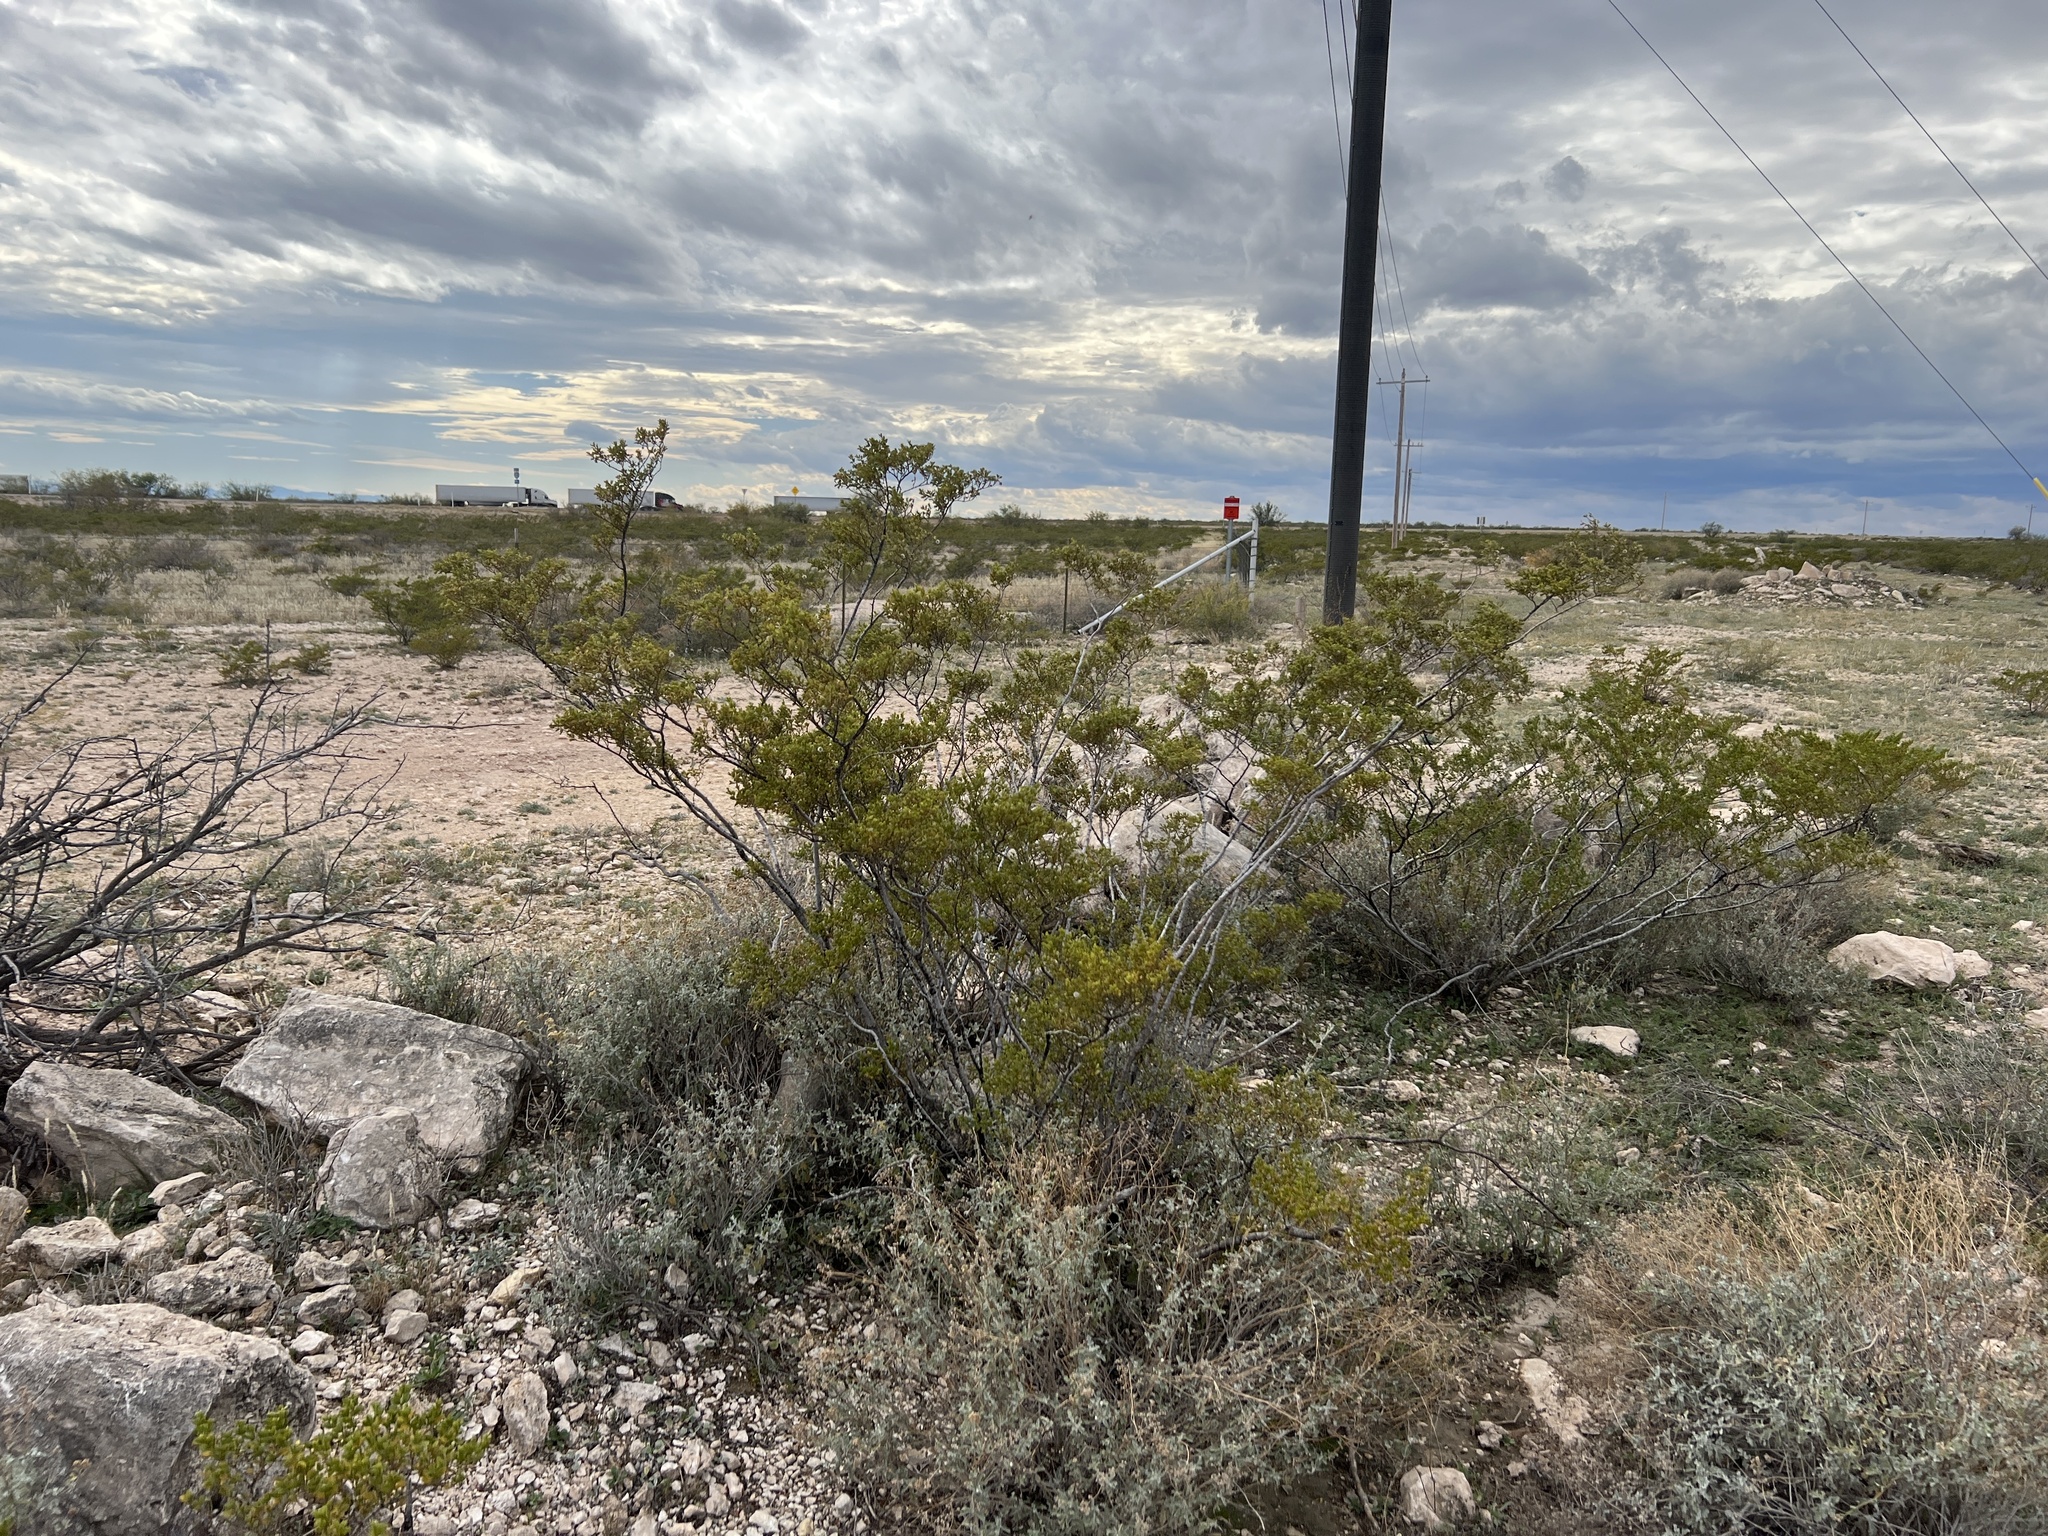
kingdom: Plantae
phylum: Tracheophyta
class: Magnoliopsida
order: Zygophyllales
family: Zygophyllaceae
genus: Larrea
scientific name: Larrea tridentata
